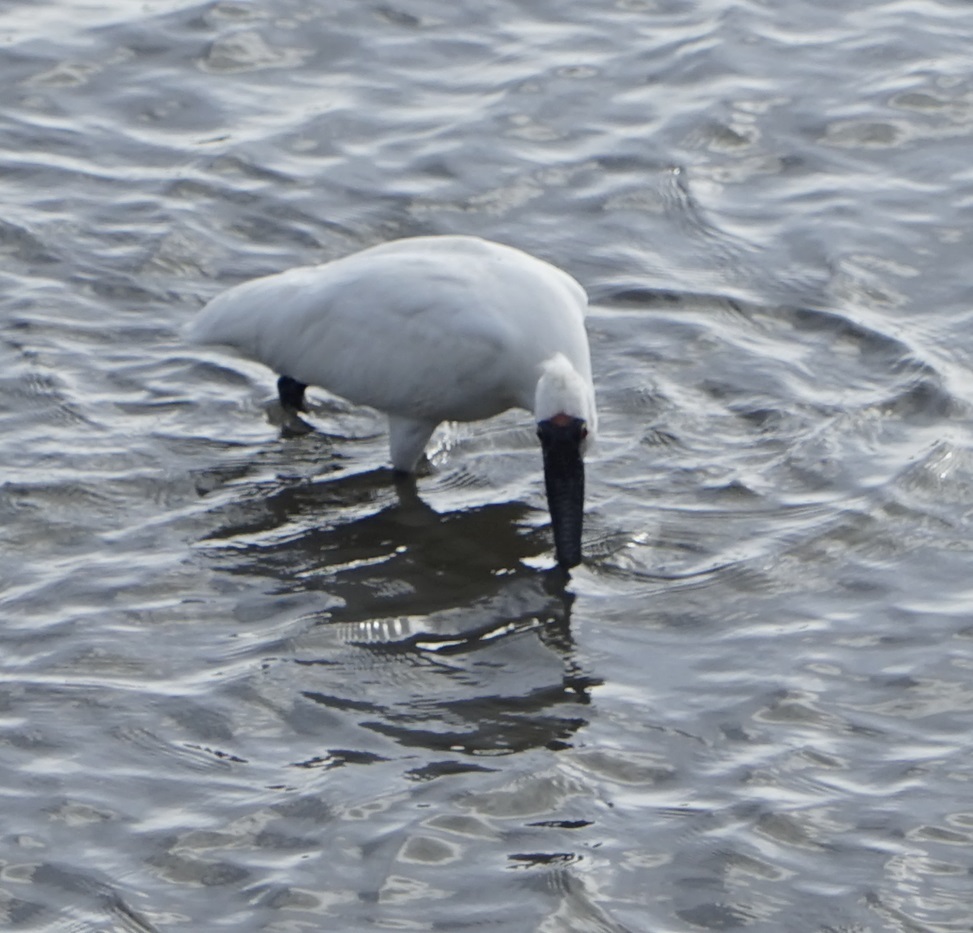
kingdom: Animalia
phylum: Chordata
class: Aves
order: Pelecaniformes
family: Threskiornithidae
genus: Platalea
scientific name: Platalea regia
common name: Royal spoonbill
